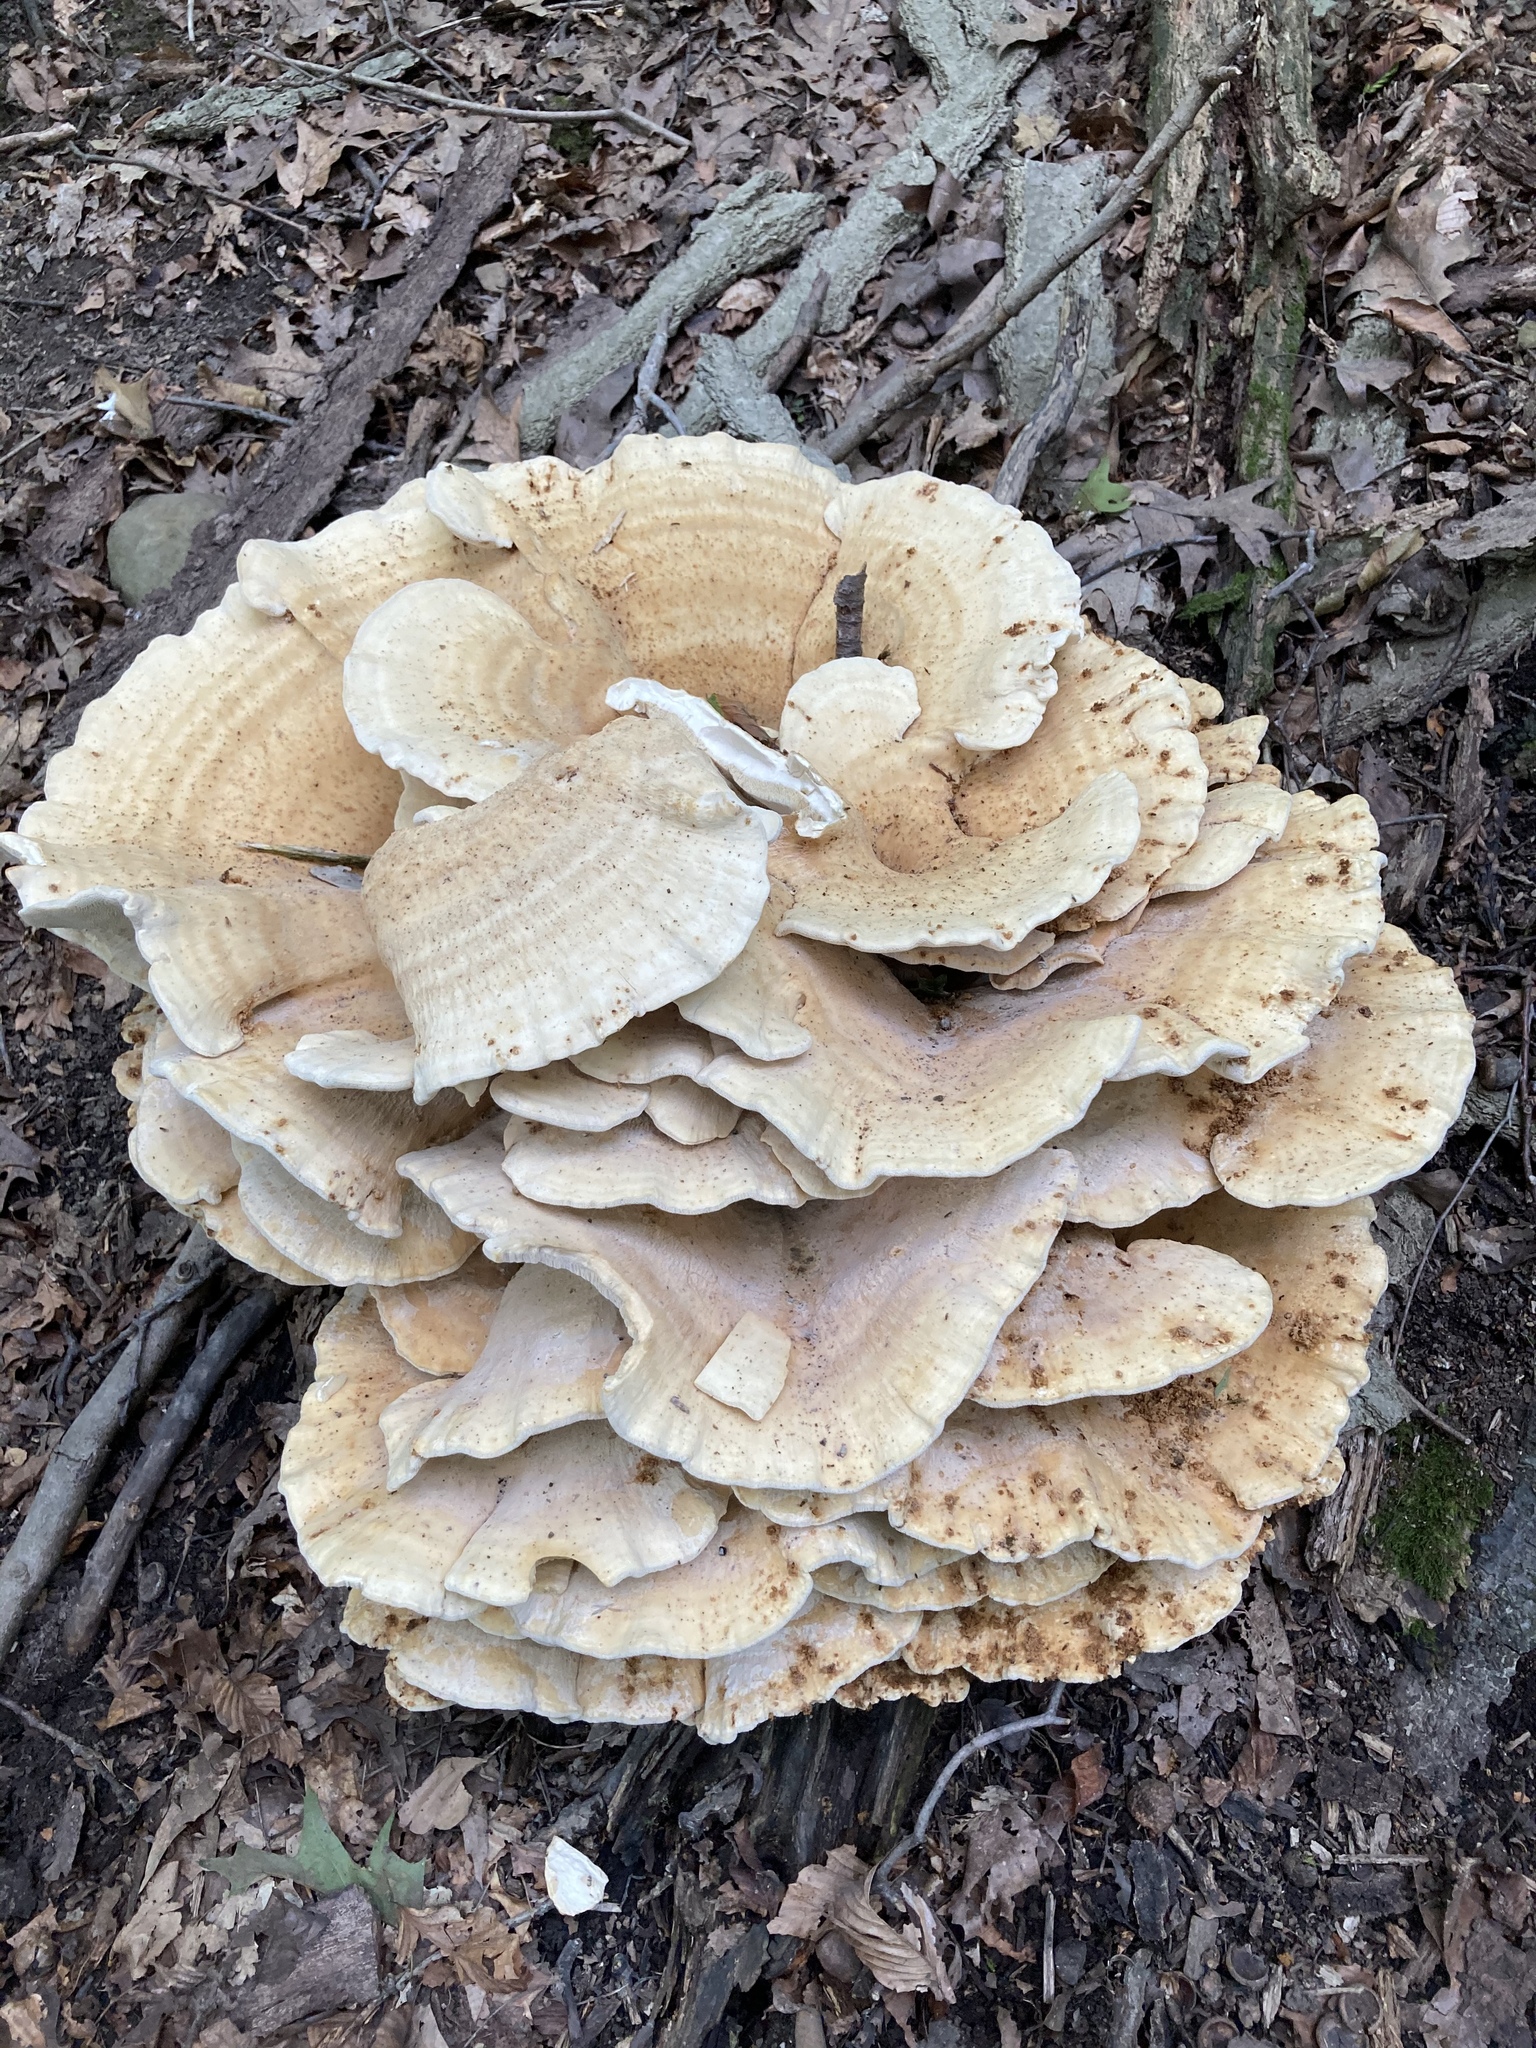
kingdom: Fungi
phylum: Basidiomycota
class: Agaricomycetes
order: Russulales
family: Bondarzewiaceae
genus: Bondarzewia
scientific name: Bondarzewia berkeleyi
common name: Berkeley's polypore
